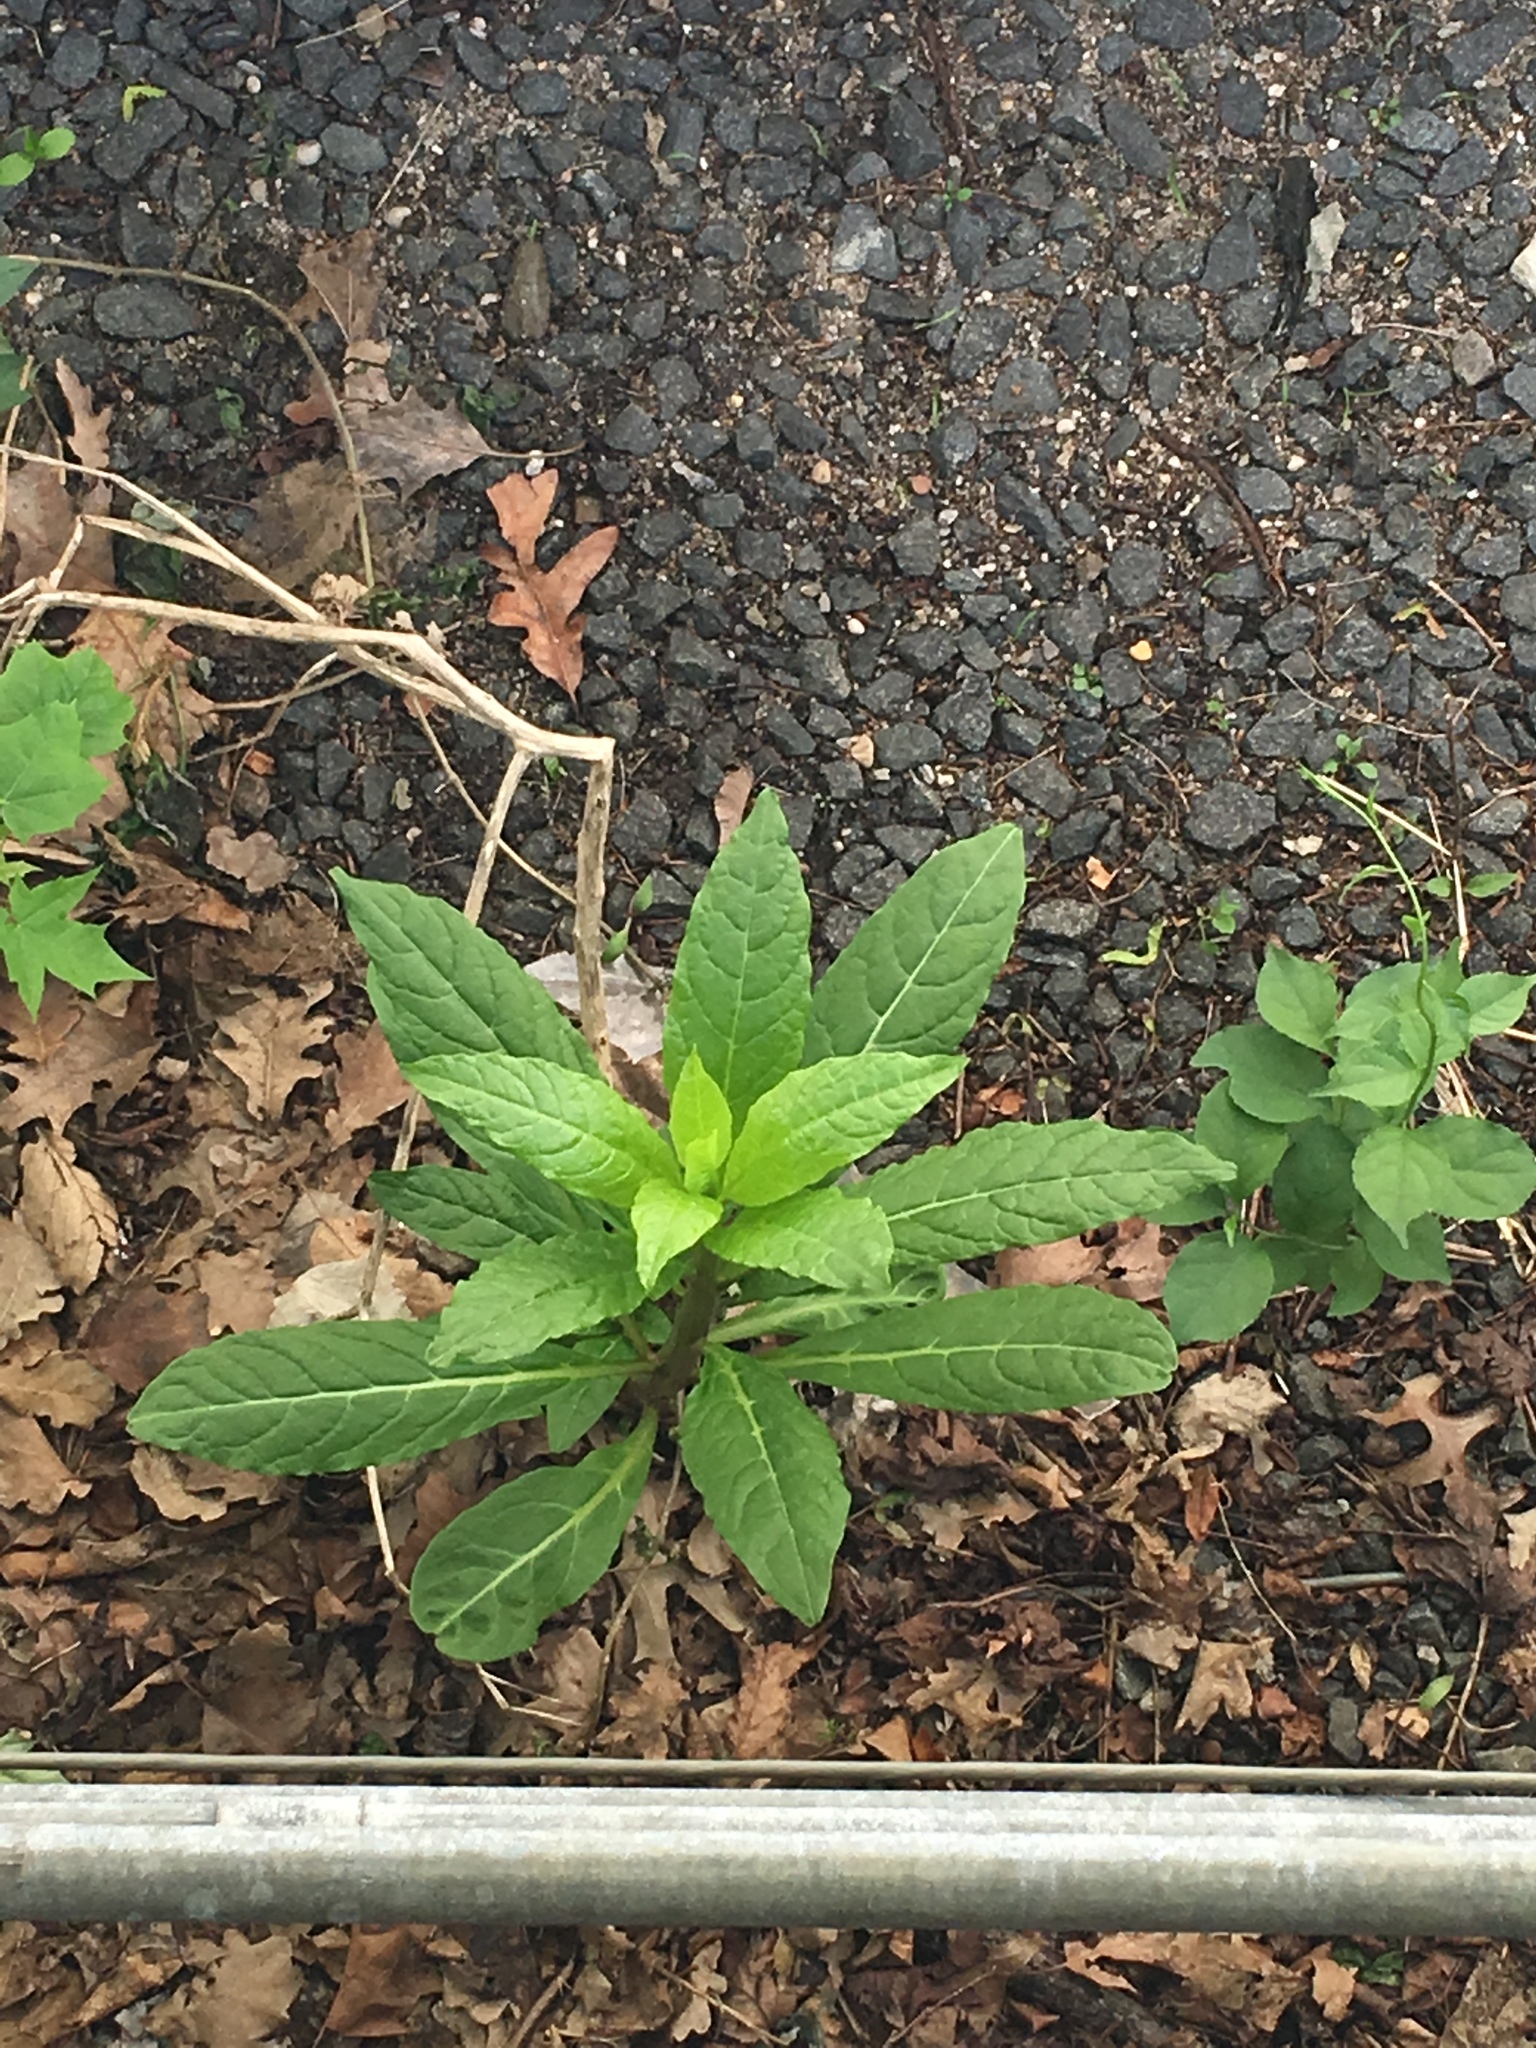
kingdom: Plantae
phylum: Tracheophyta
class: Magnoliopsida
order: Caryophyllales
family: Phytolaccaceae
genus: Phytolacca
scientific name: Phytolacca americana
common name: American pokeweed
